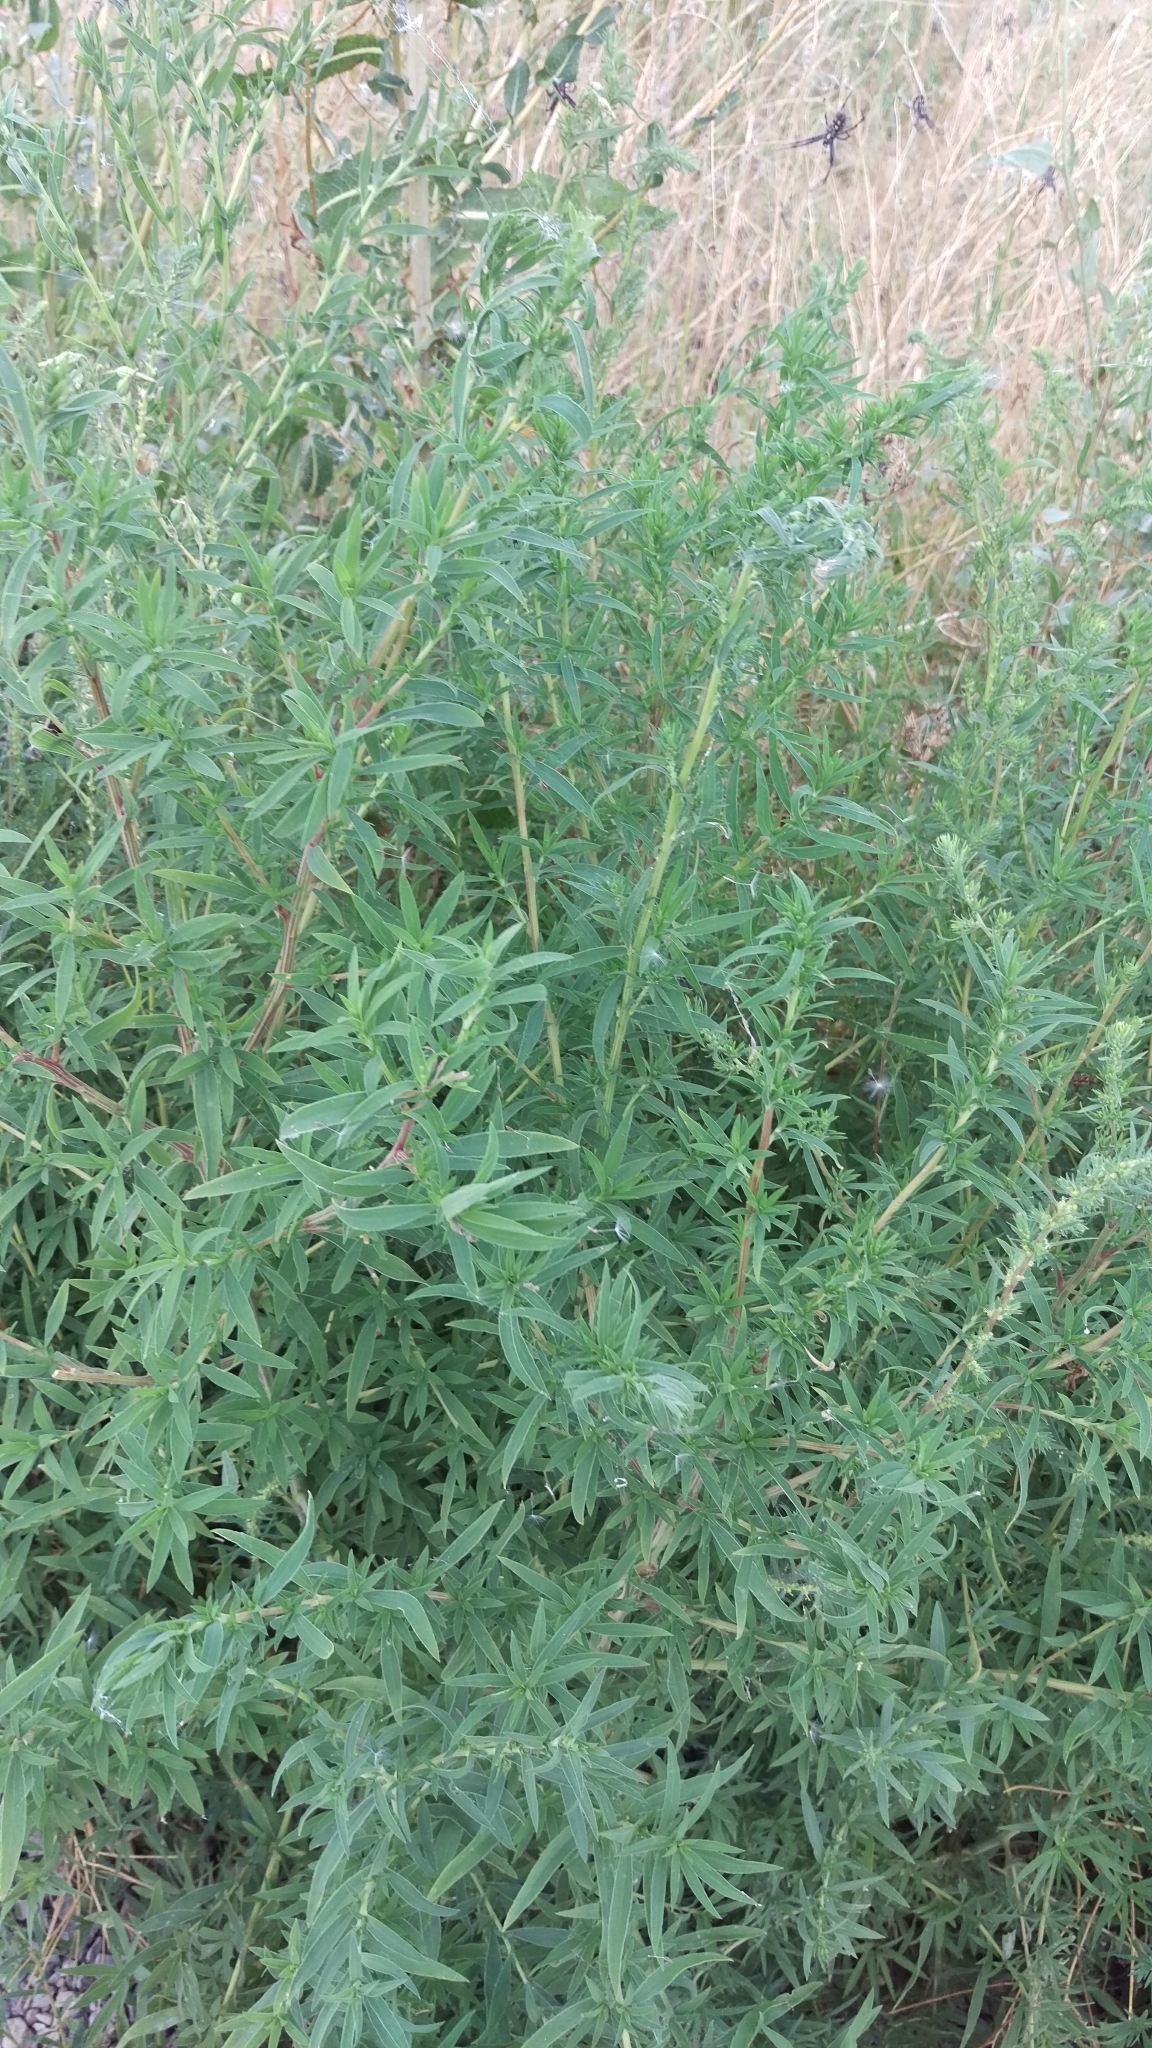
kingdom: Plantae
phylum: Tracheophyta
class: Magnoliopsida
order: Caryophyllales
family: Amaranthaceae
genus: Bassia
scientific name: Bassia scoparia
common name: Belvedere
